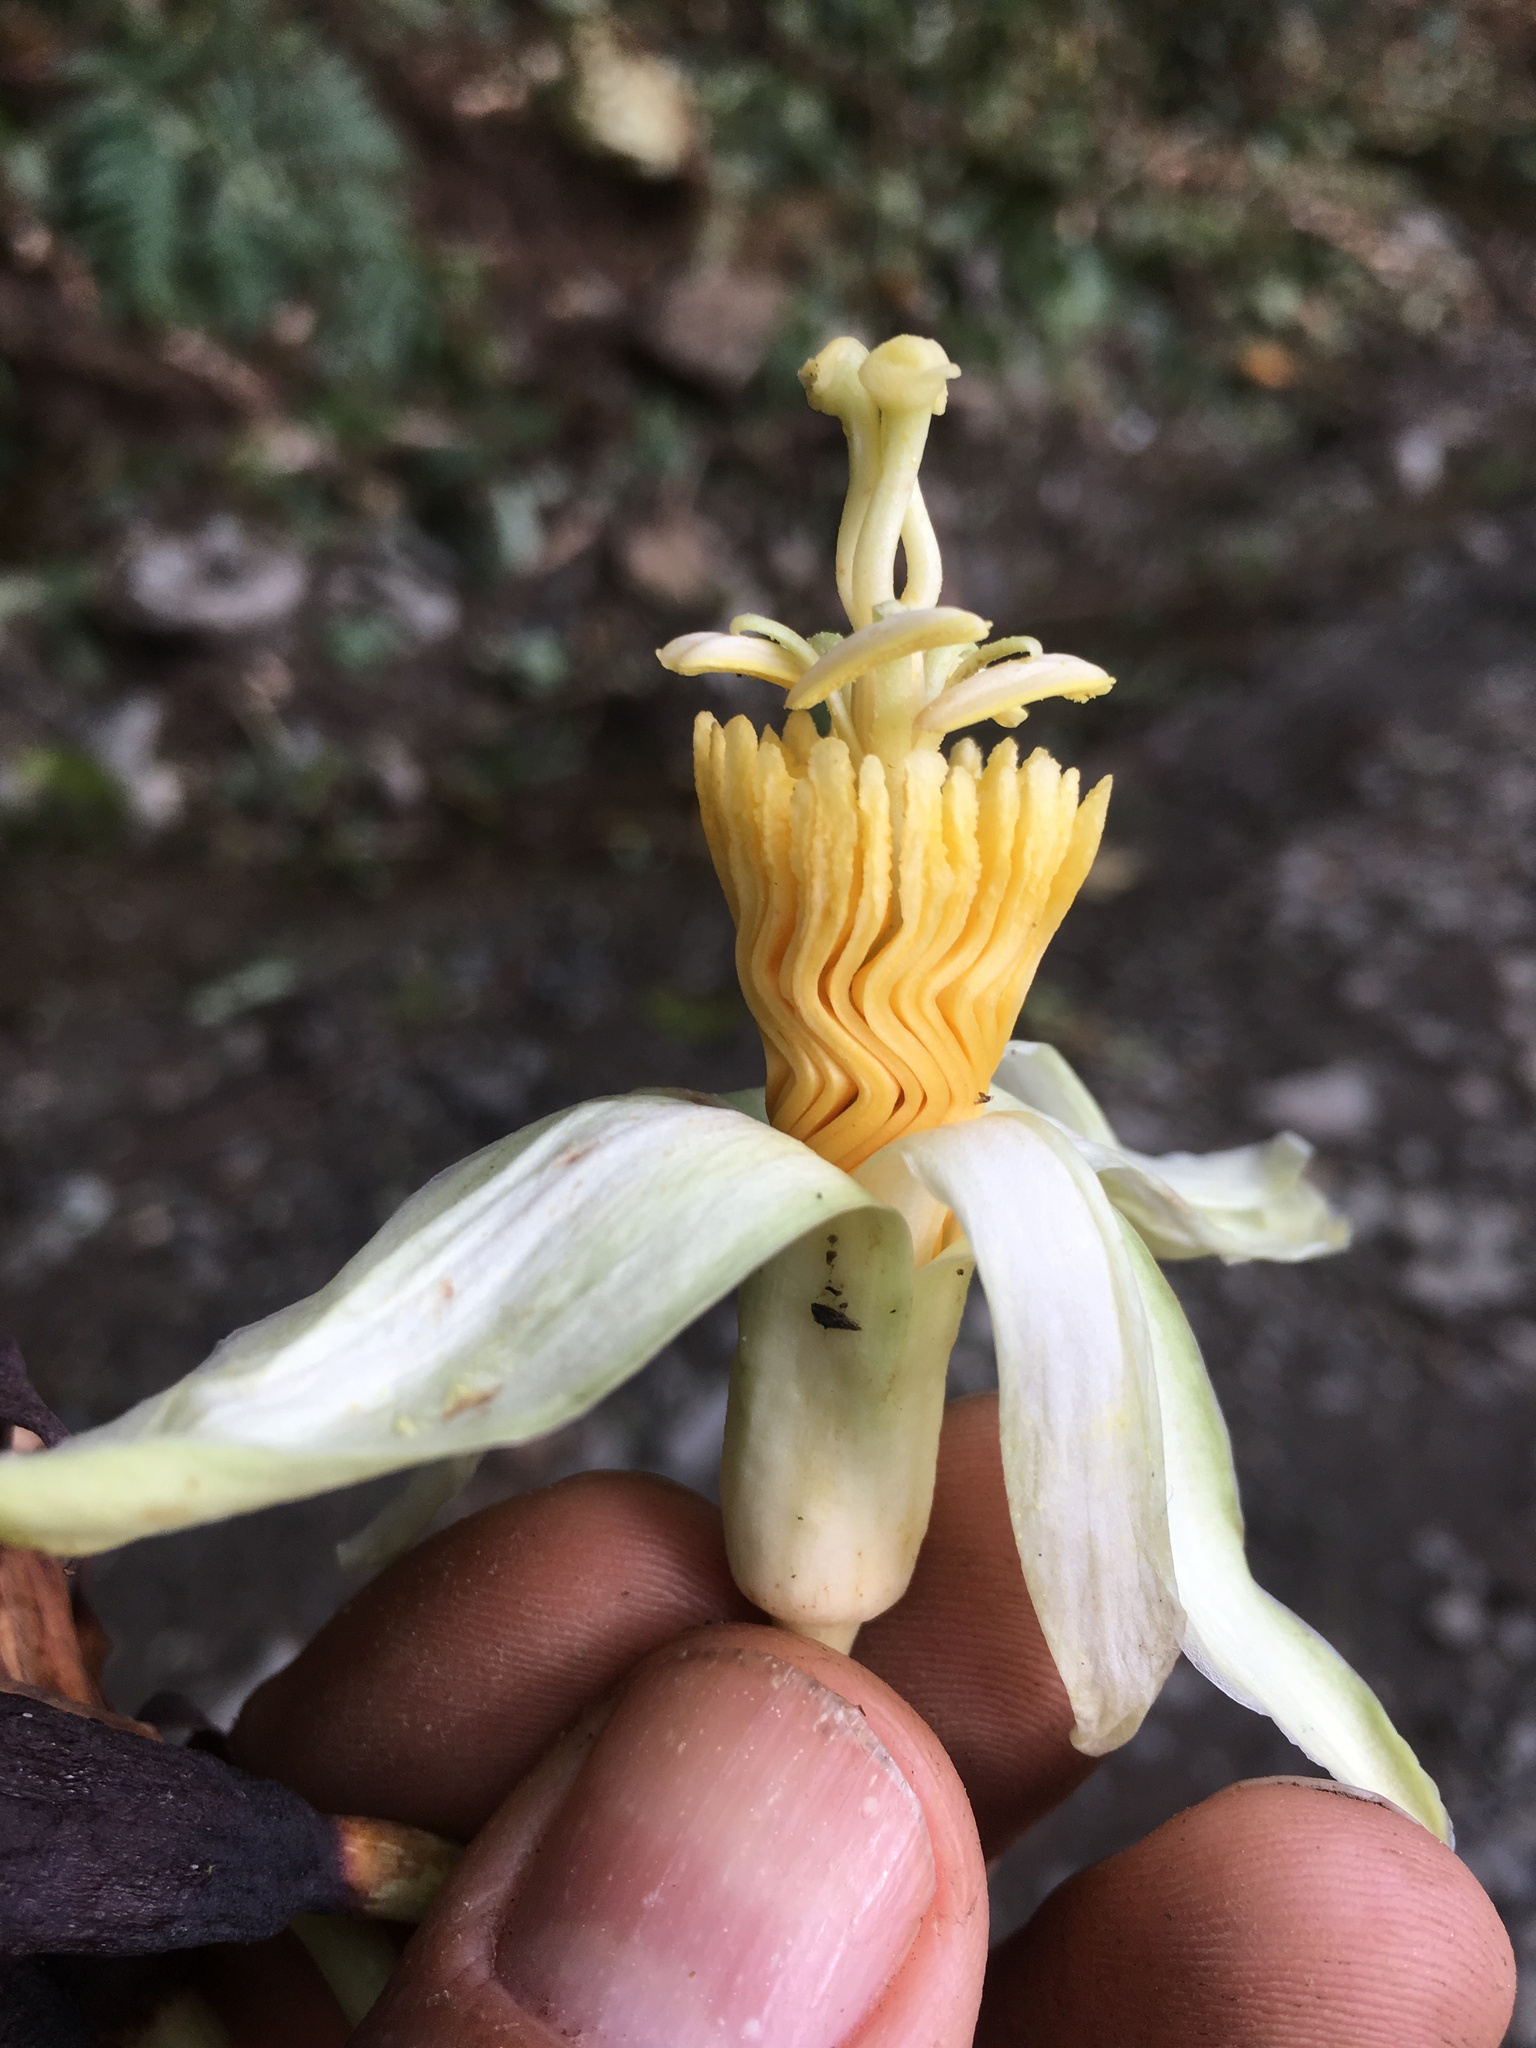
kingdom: Plantae
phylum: Tracheophyta
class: Magnoliopsida
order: Malpighiales
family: Passifloraceae
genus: Passiflora
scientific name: Passiflora macrophylla
